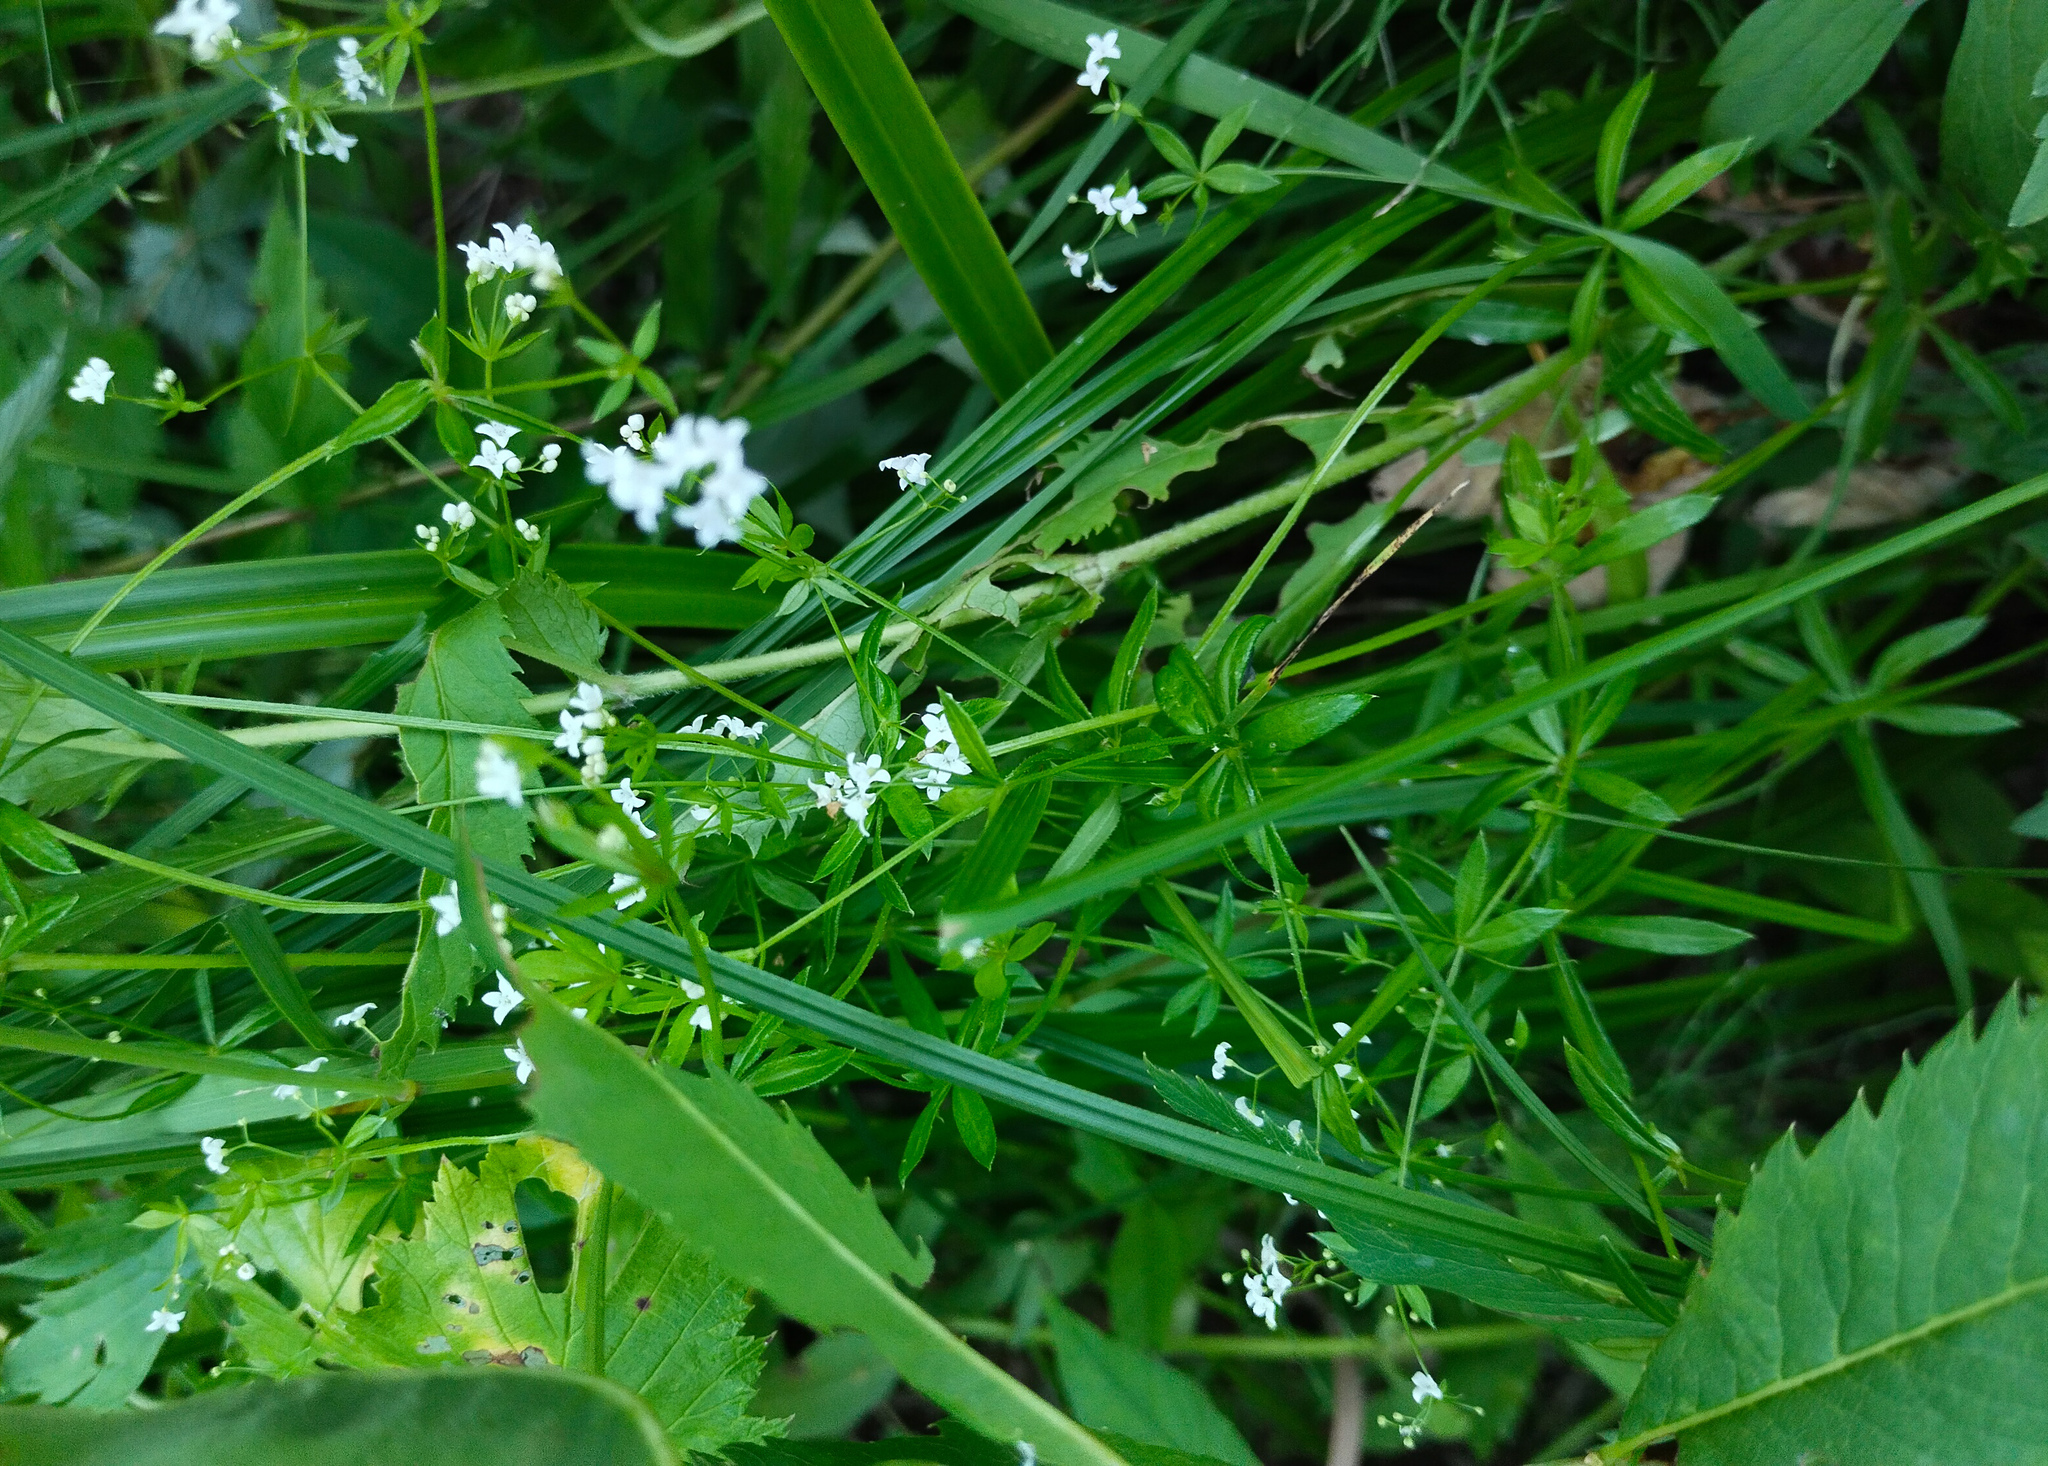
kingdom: Plantae
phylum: Tracheophyta
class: Magnoliopsida
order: Gentianales
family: Rubiaceae
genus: Galium
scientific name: Galium uliginosum
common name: Fen bedstraw
